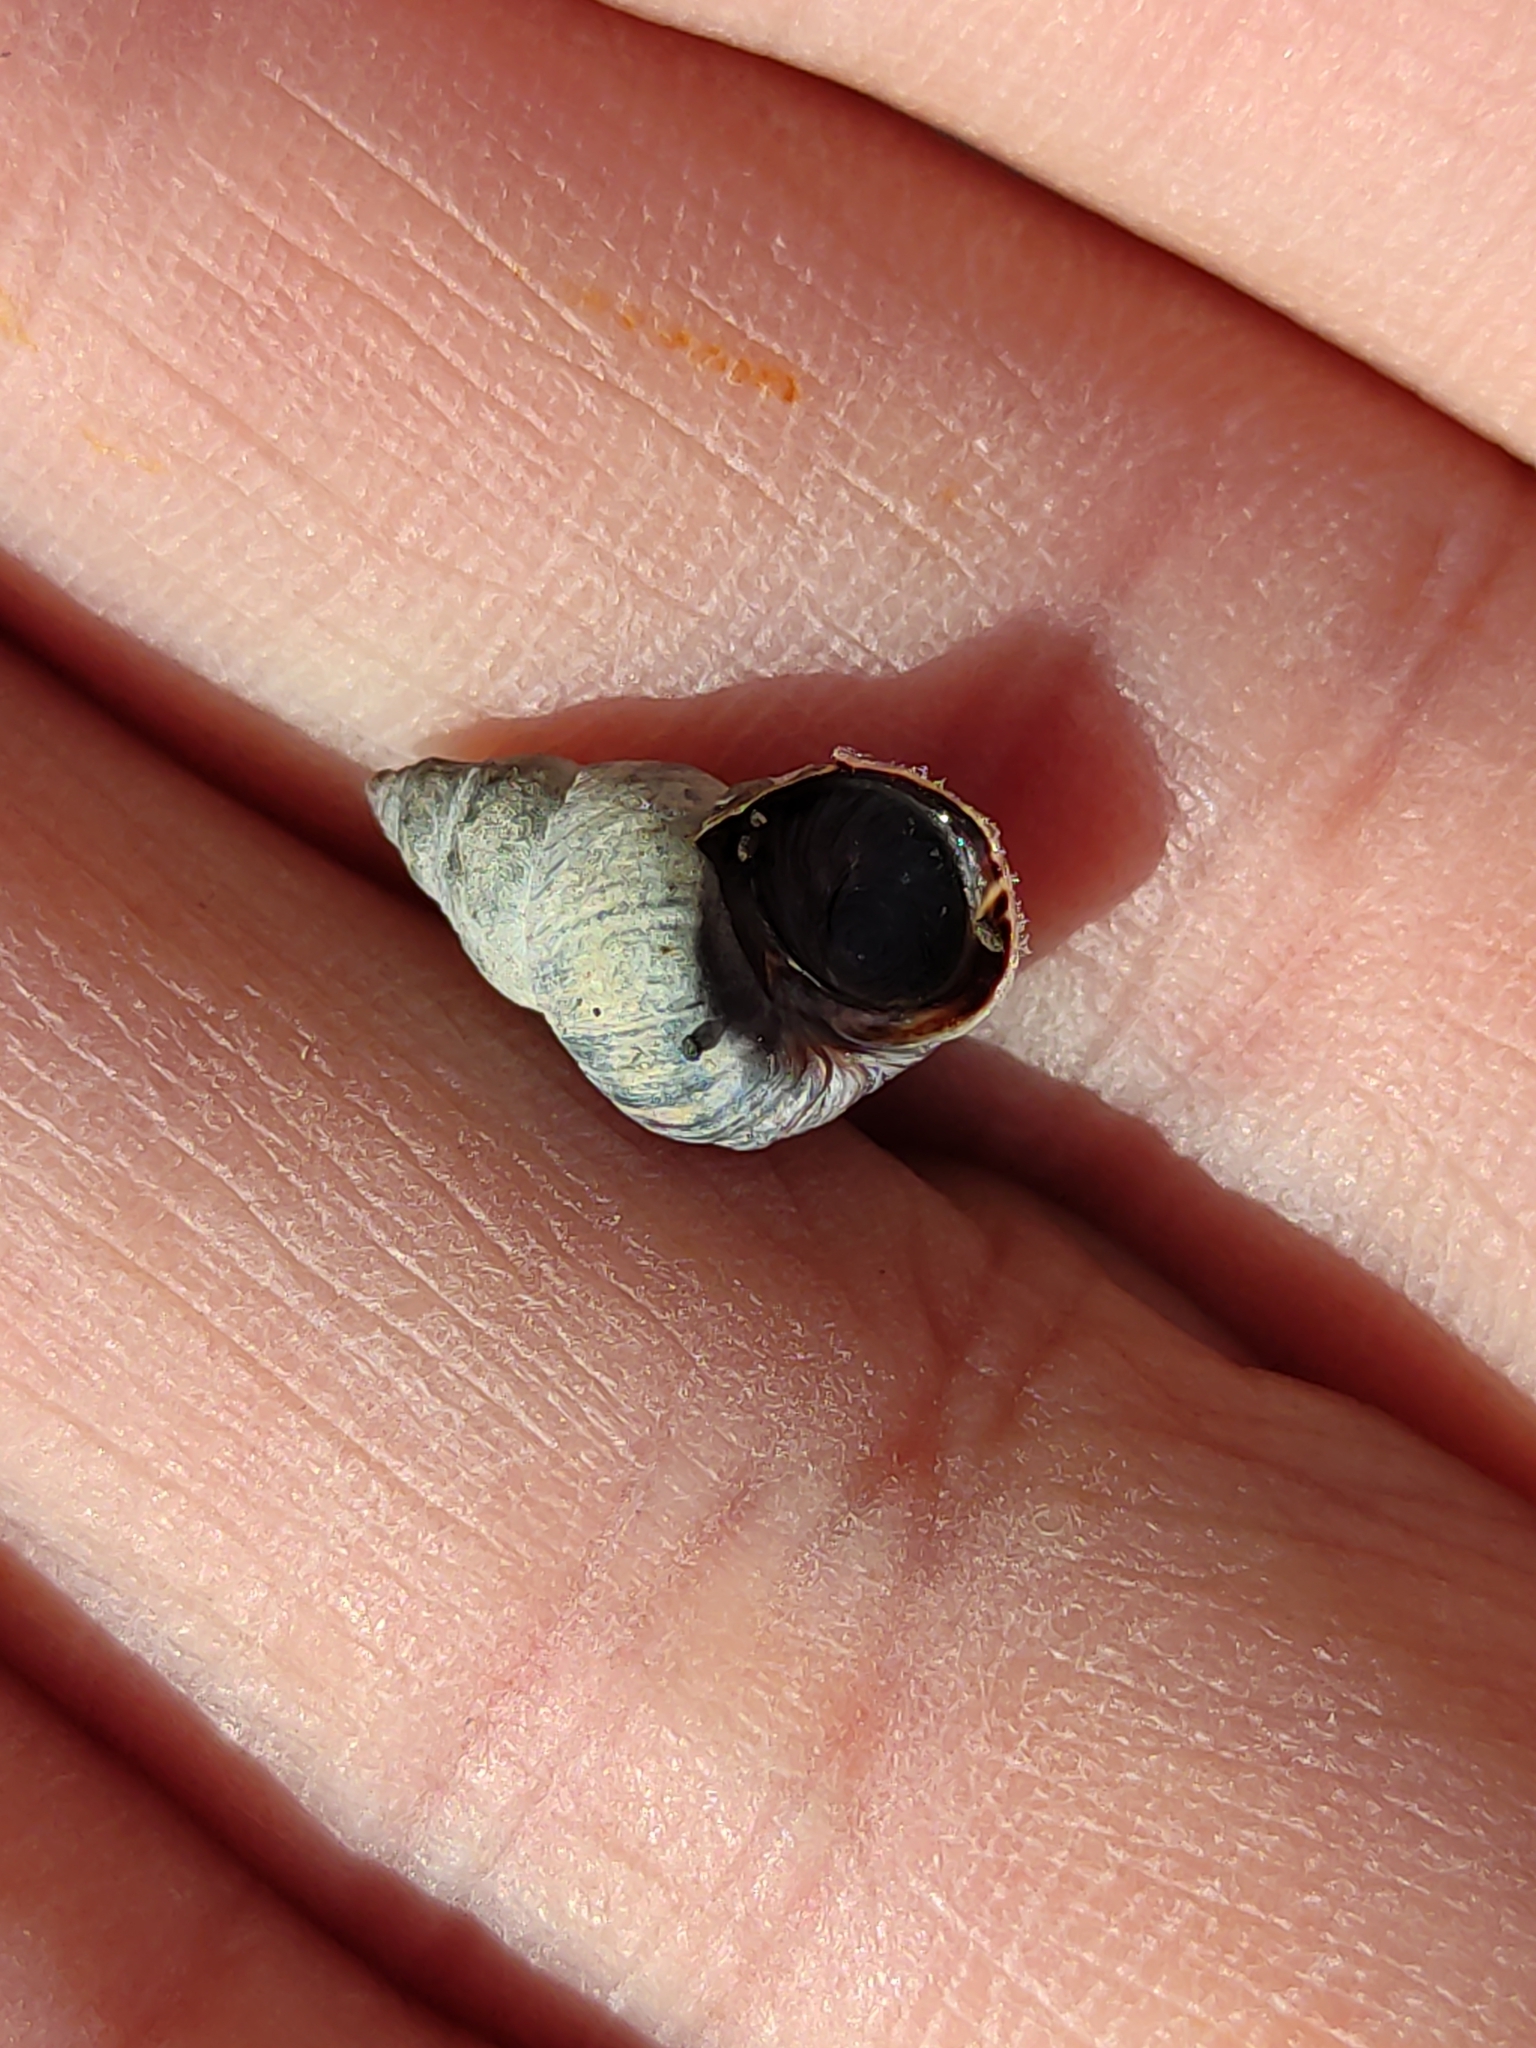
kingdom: Animalia
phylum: Mollusca
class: Gastropoda
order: Littorinimorpha
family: Littorinidae
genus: Austrolittorina
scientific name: Austrolittorina cincta
